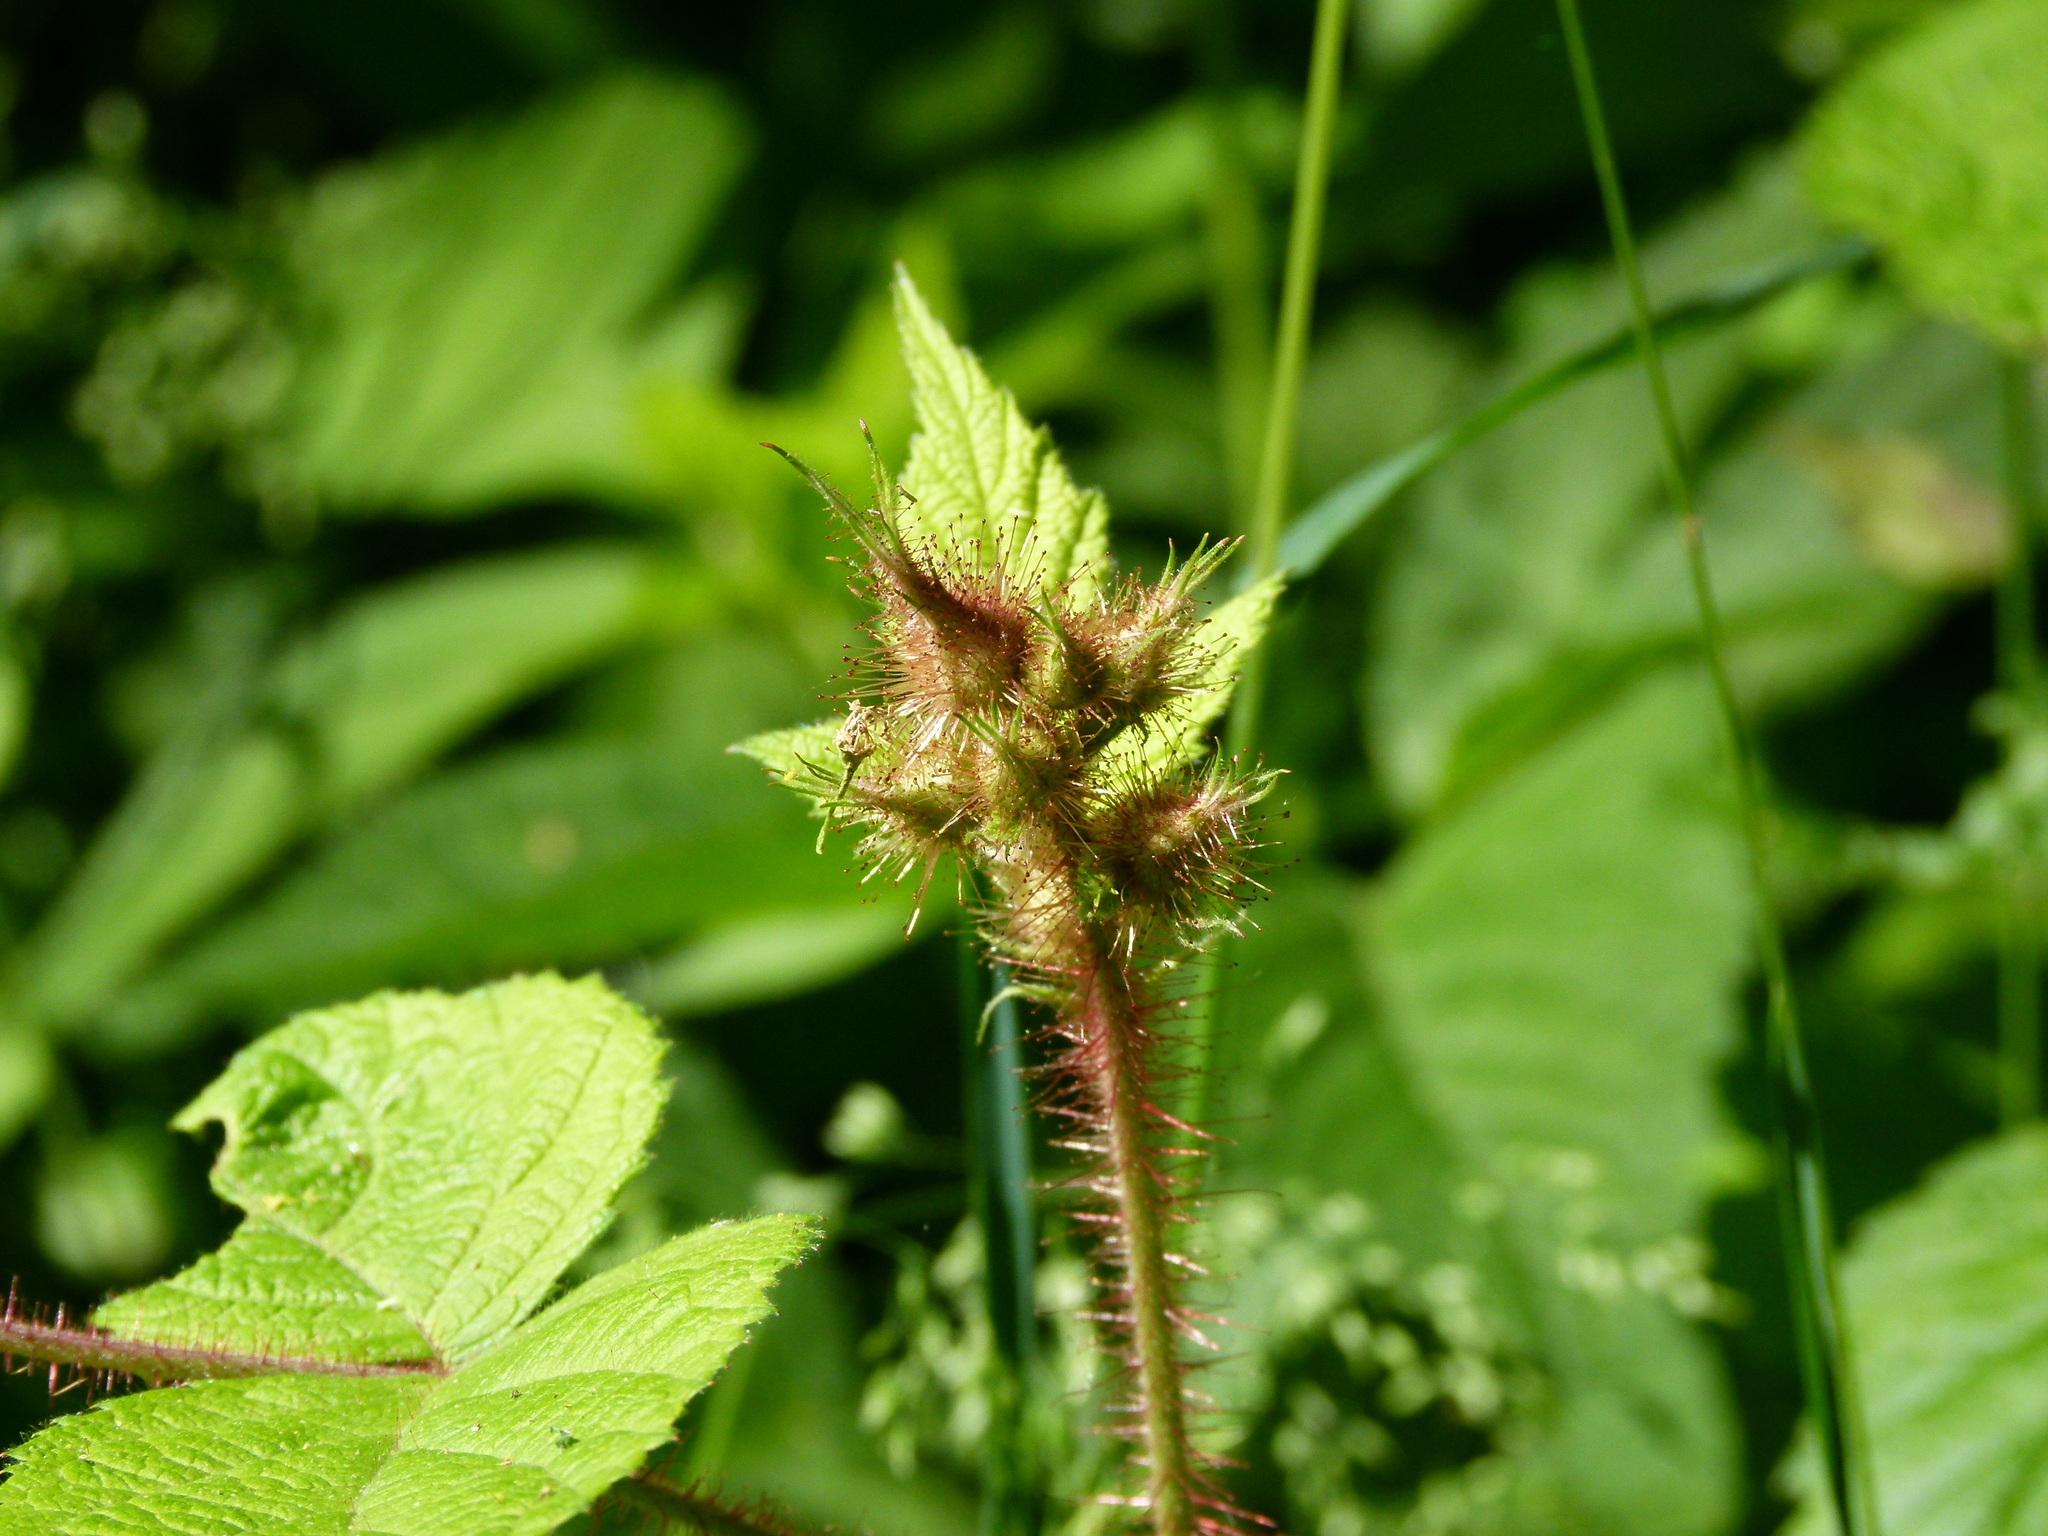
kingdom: Plantae
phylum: Tracheophyta
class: Magnoliopsida
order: Rosales
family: Rosaceae
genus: Rubus
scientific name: Rubus phoenicolasius
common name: Japanese wineberry
